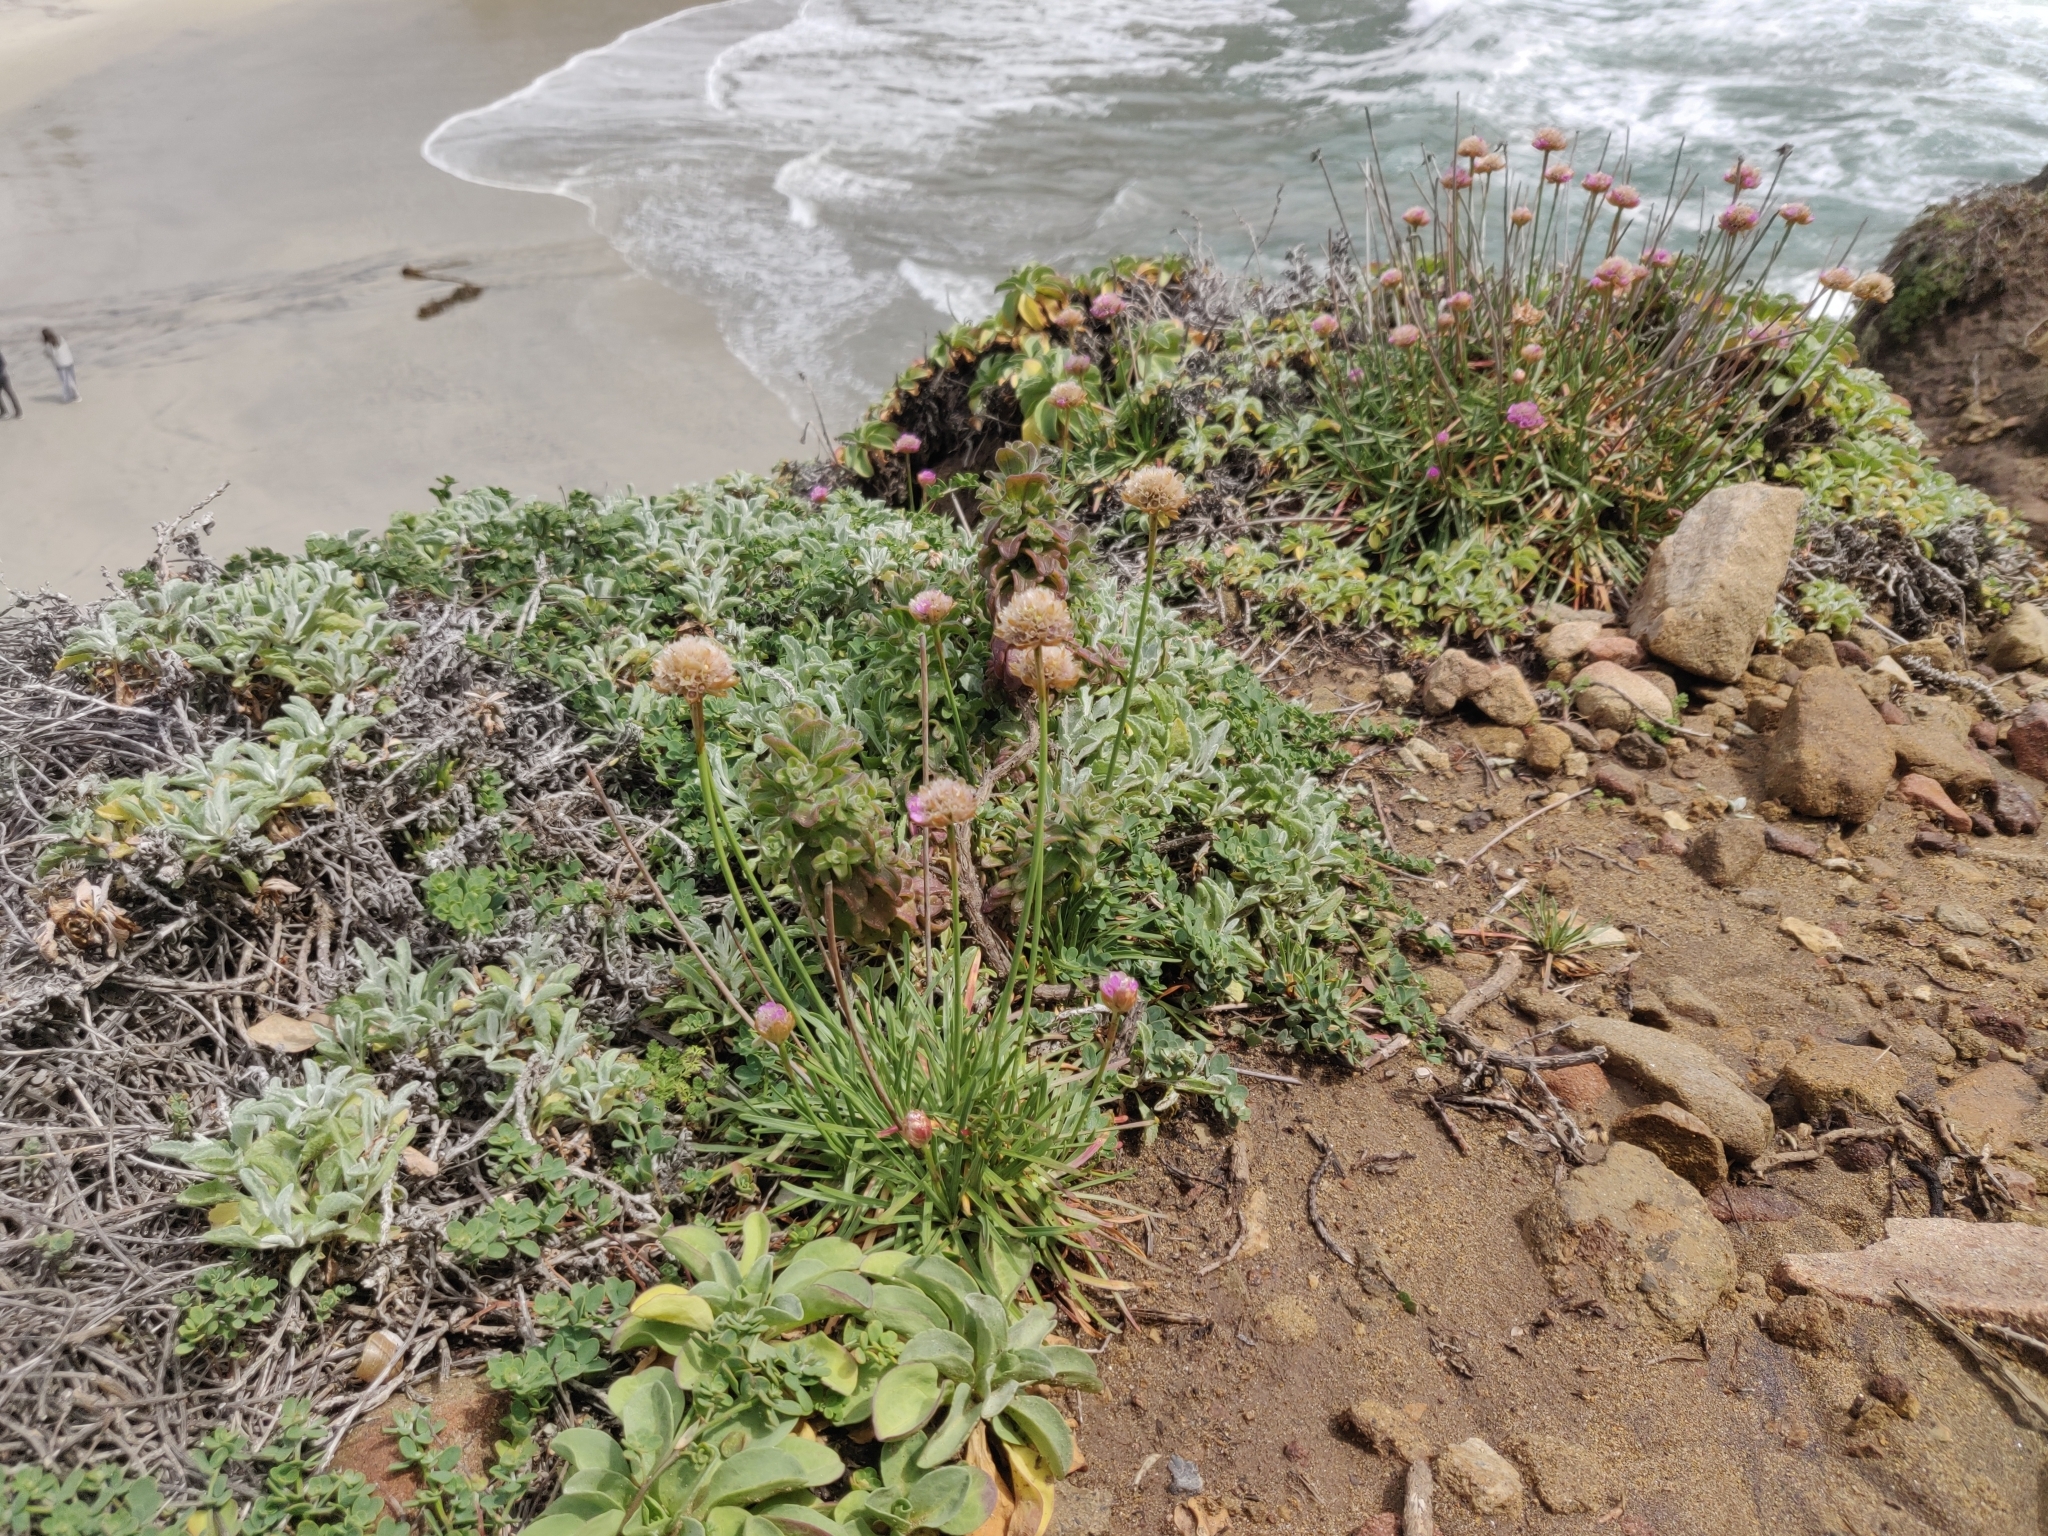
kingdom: Plantae
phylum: Tracheophyta
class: Magnoliopsida
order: Caryophyllales
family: Plumbaginaceae
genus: Armeria
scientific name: Armeria maritima
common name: Thrift
